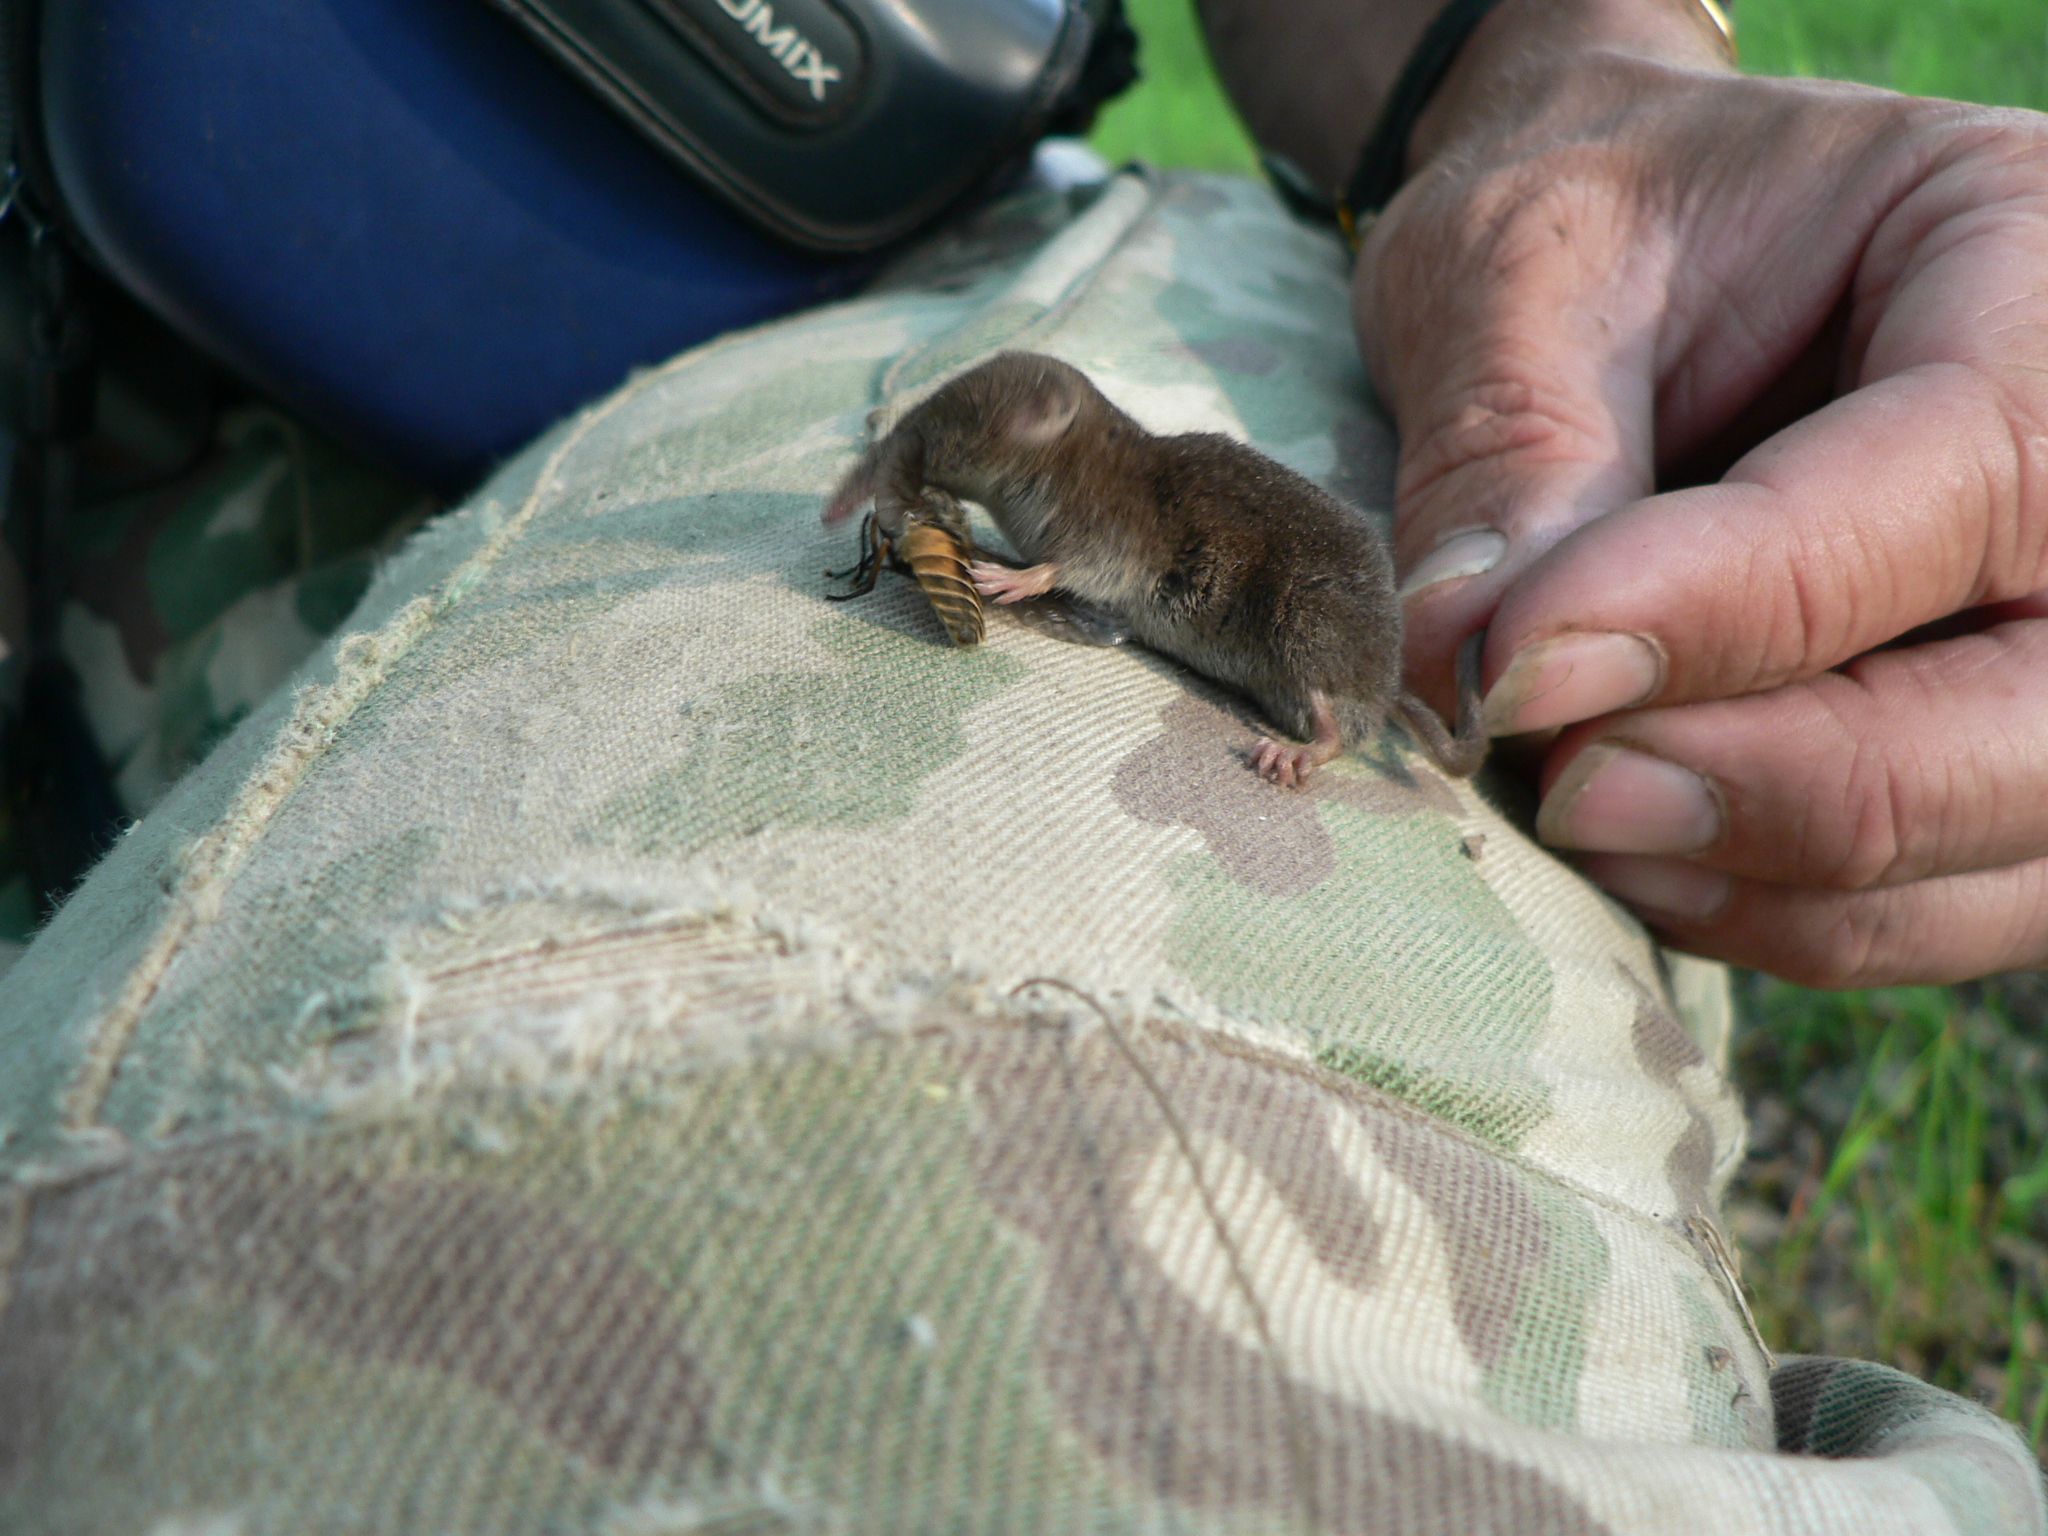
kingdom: Animalia
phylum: Chordata
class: Mammalia
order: Soricomorpha
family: Soricidae
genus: Sorex
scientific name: Sorex minutus
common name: Eurasian pygmy shrew
